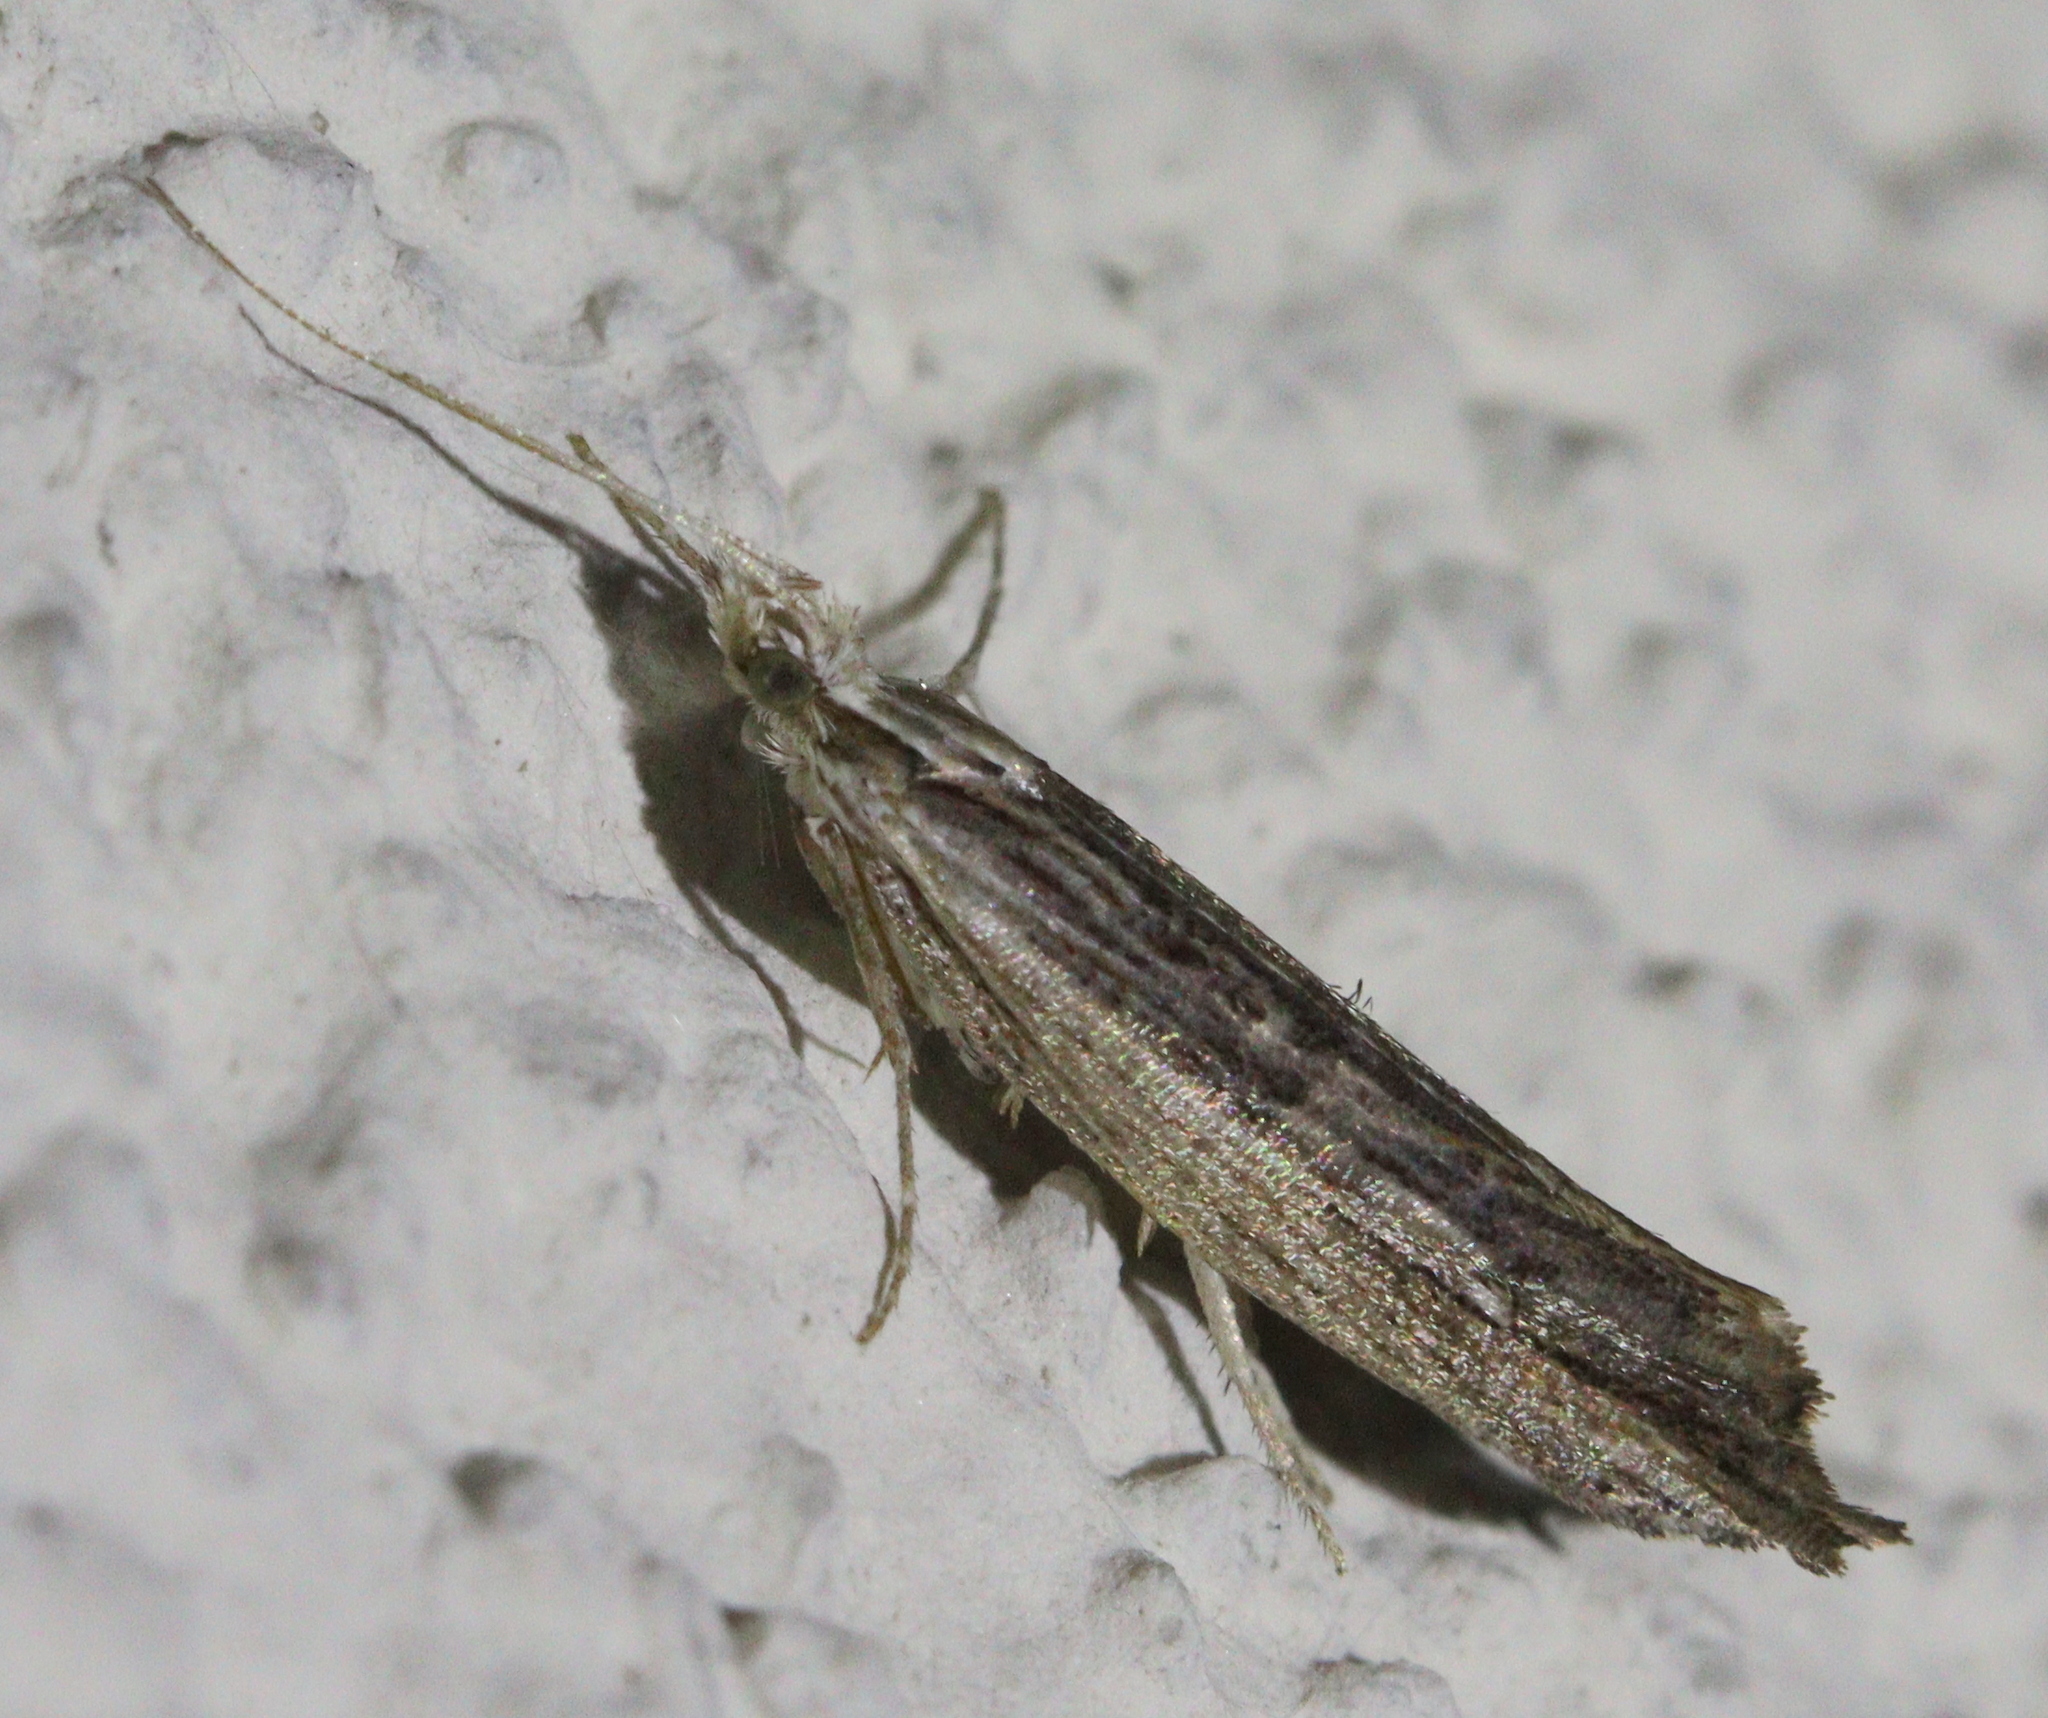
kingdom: Animalia
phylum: Arthropoda
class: Insecta
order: Lepidoptera
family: Ypsolophidae
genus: Ypsolopha
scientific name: Ypsolopha scabrella
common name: Wainscot smudge
